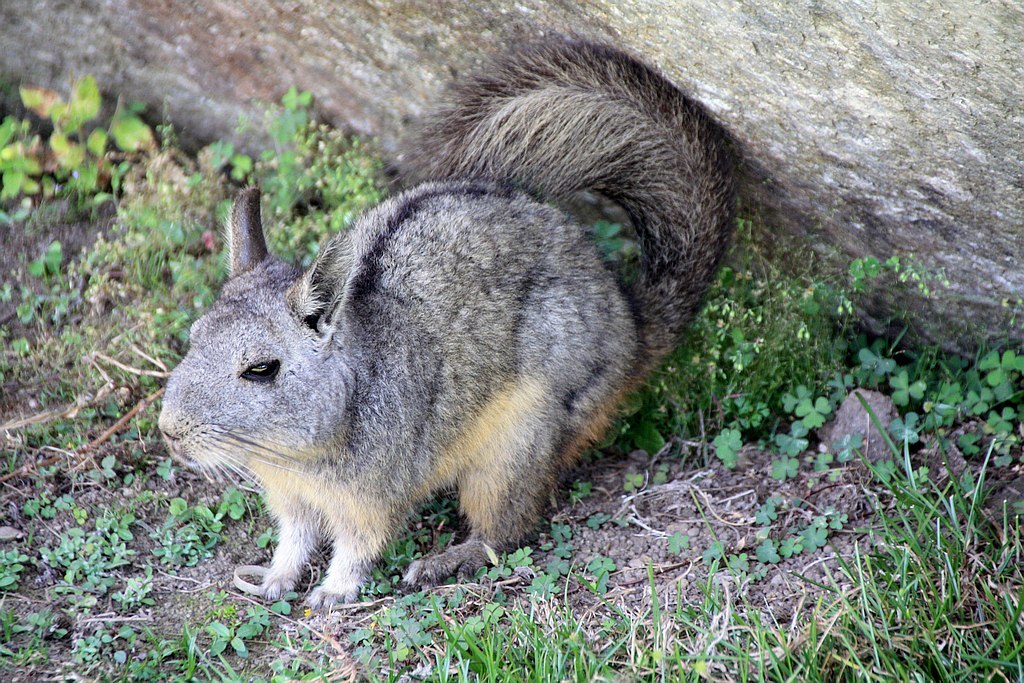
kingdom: Animalia
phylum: Chordata
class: Mammalia
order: Rodentia
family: Chinchillidae
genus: Lagidium
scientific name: Lagidium viscacia
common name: Southern viscacha
